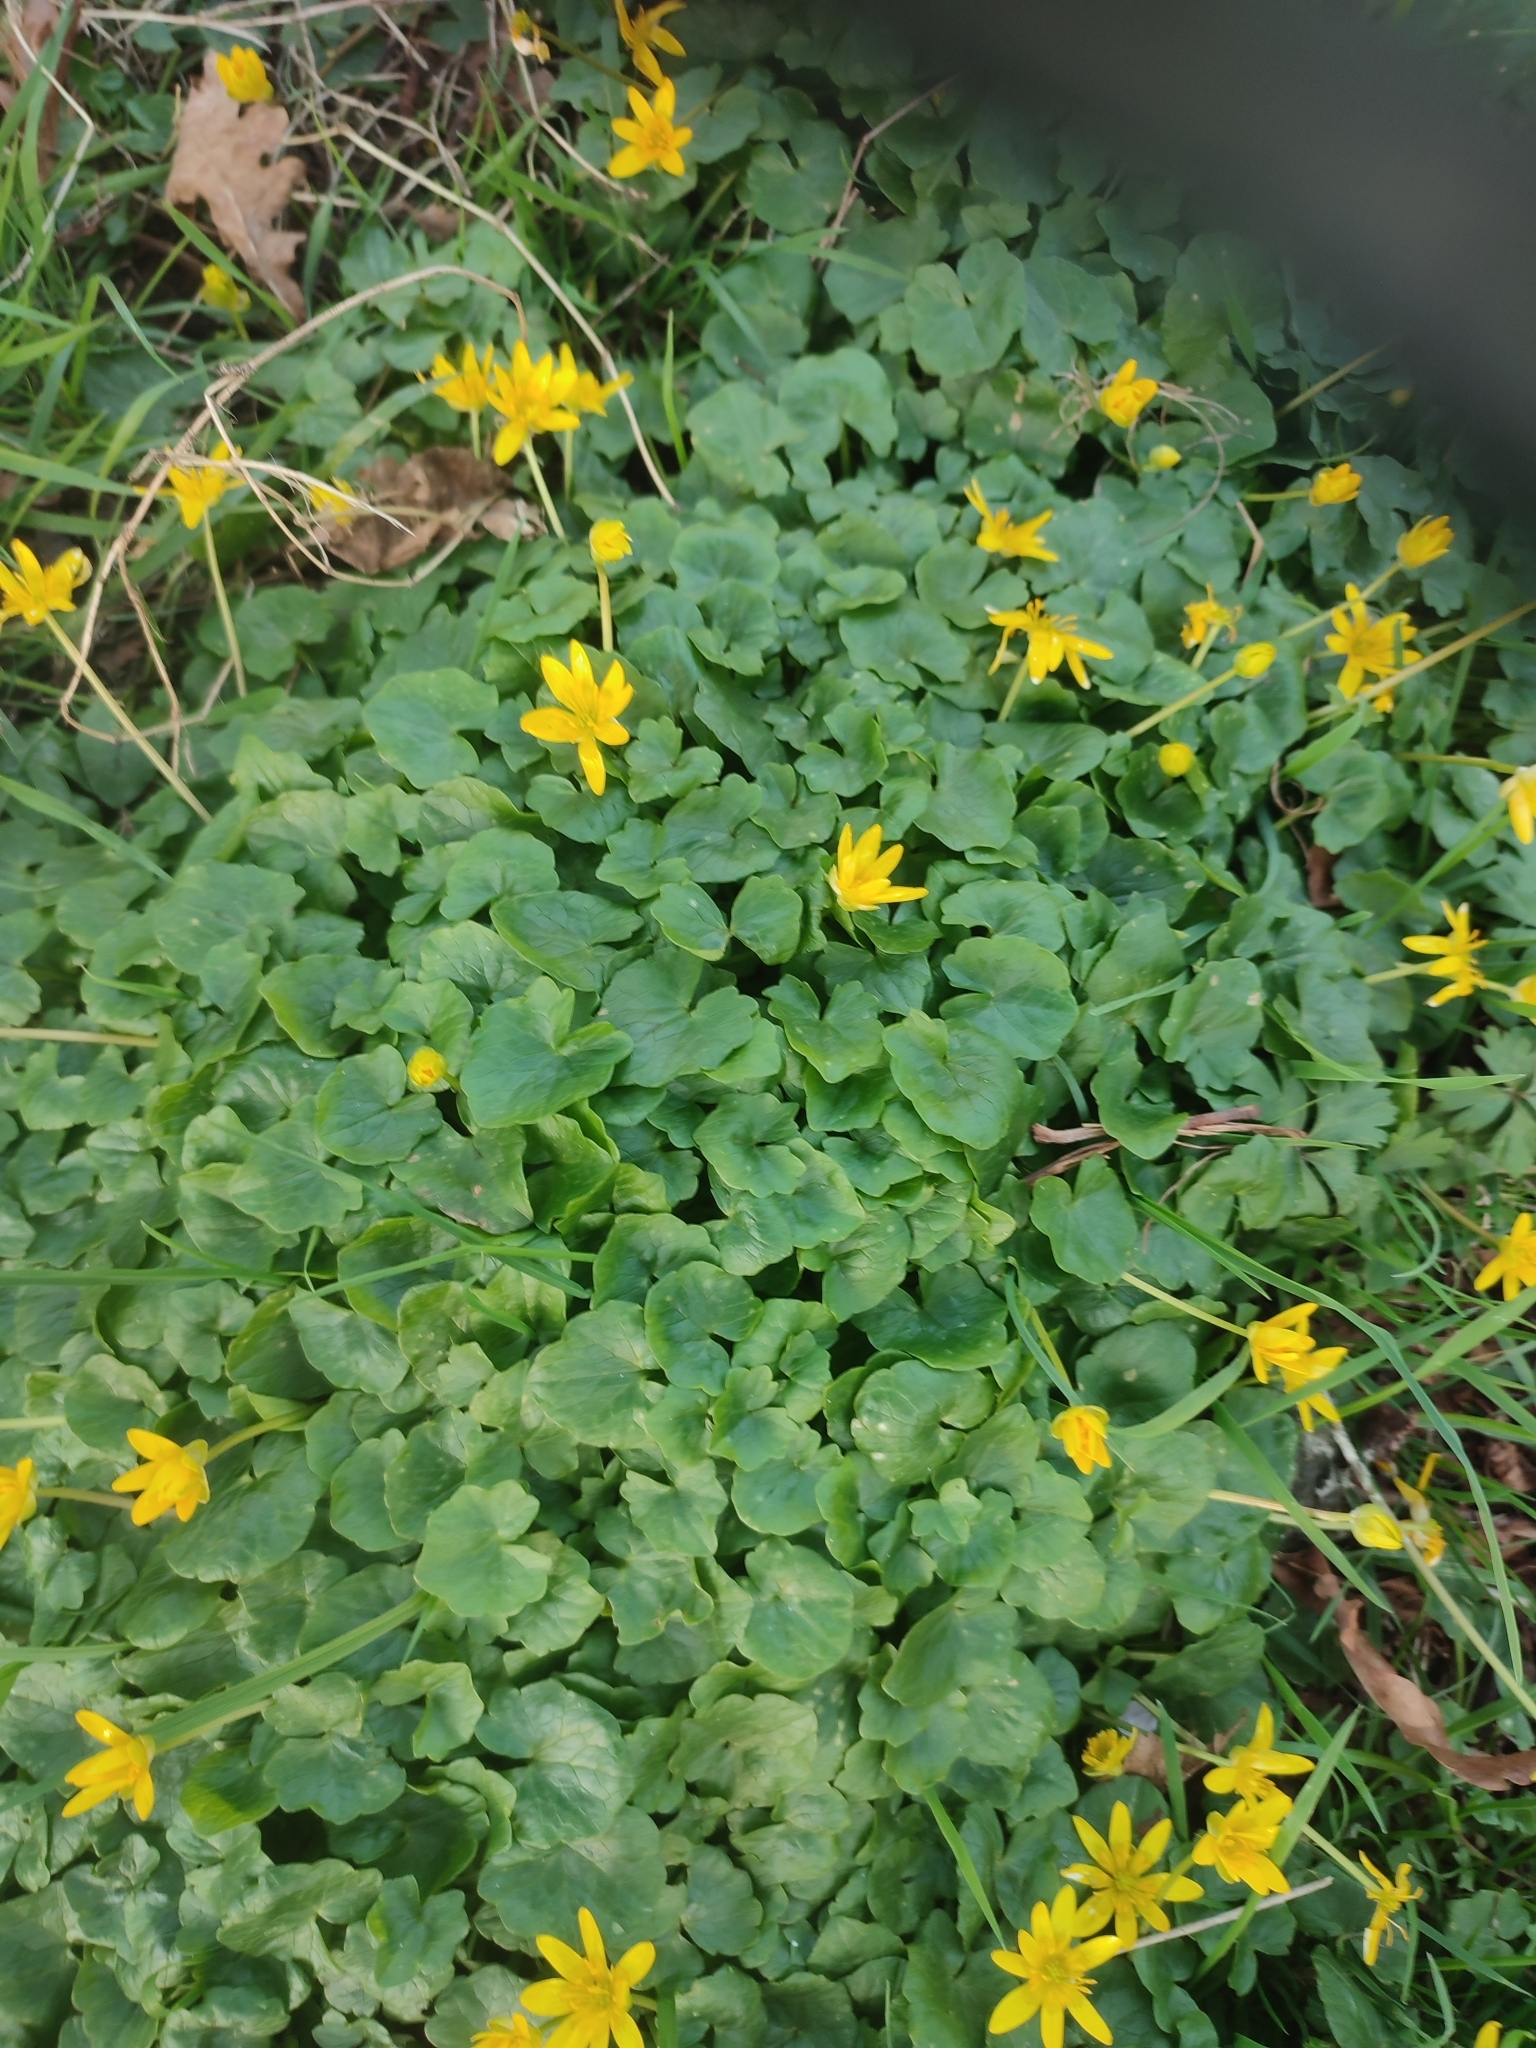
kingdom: Plantae
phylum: Tracheophyta
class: Magnoliopsida
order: Ranunculales
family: Ranunculaceae
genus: Ficaria
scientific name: Ficaria verna
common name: Lesser celandine
